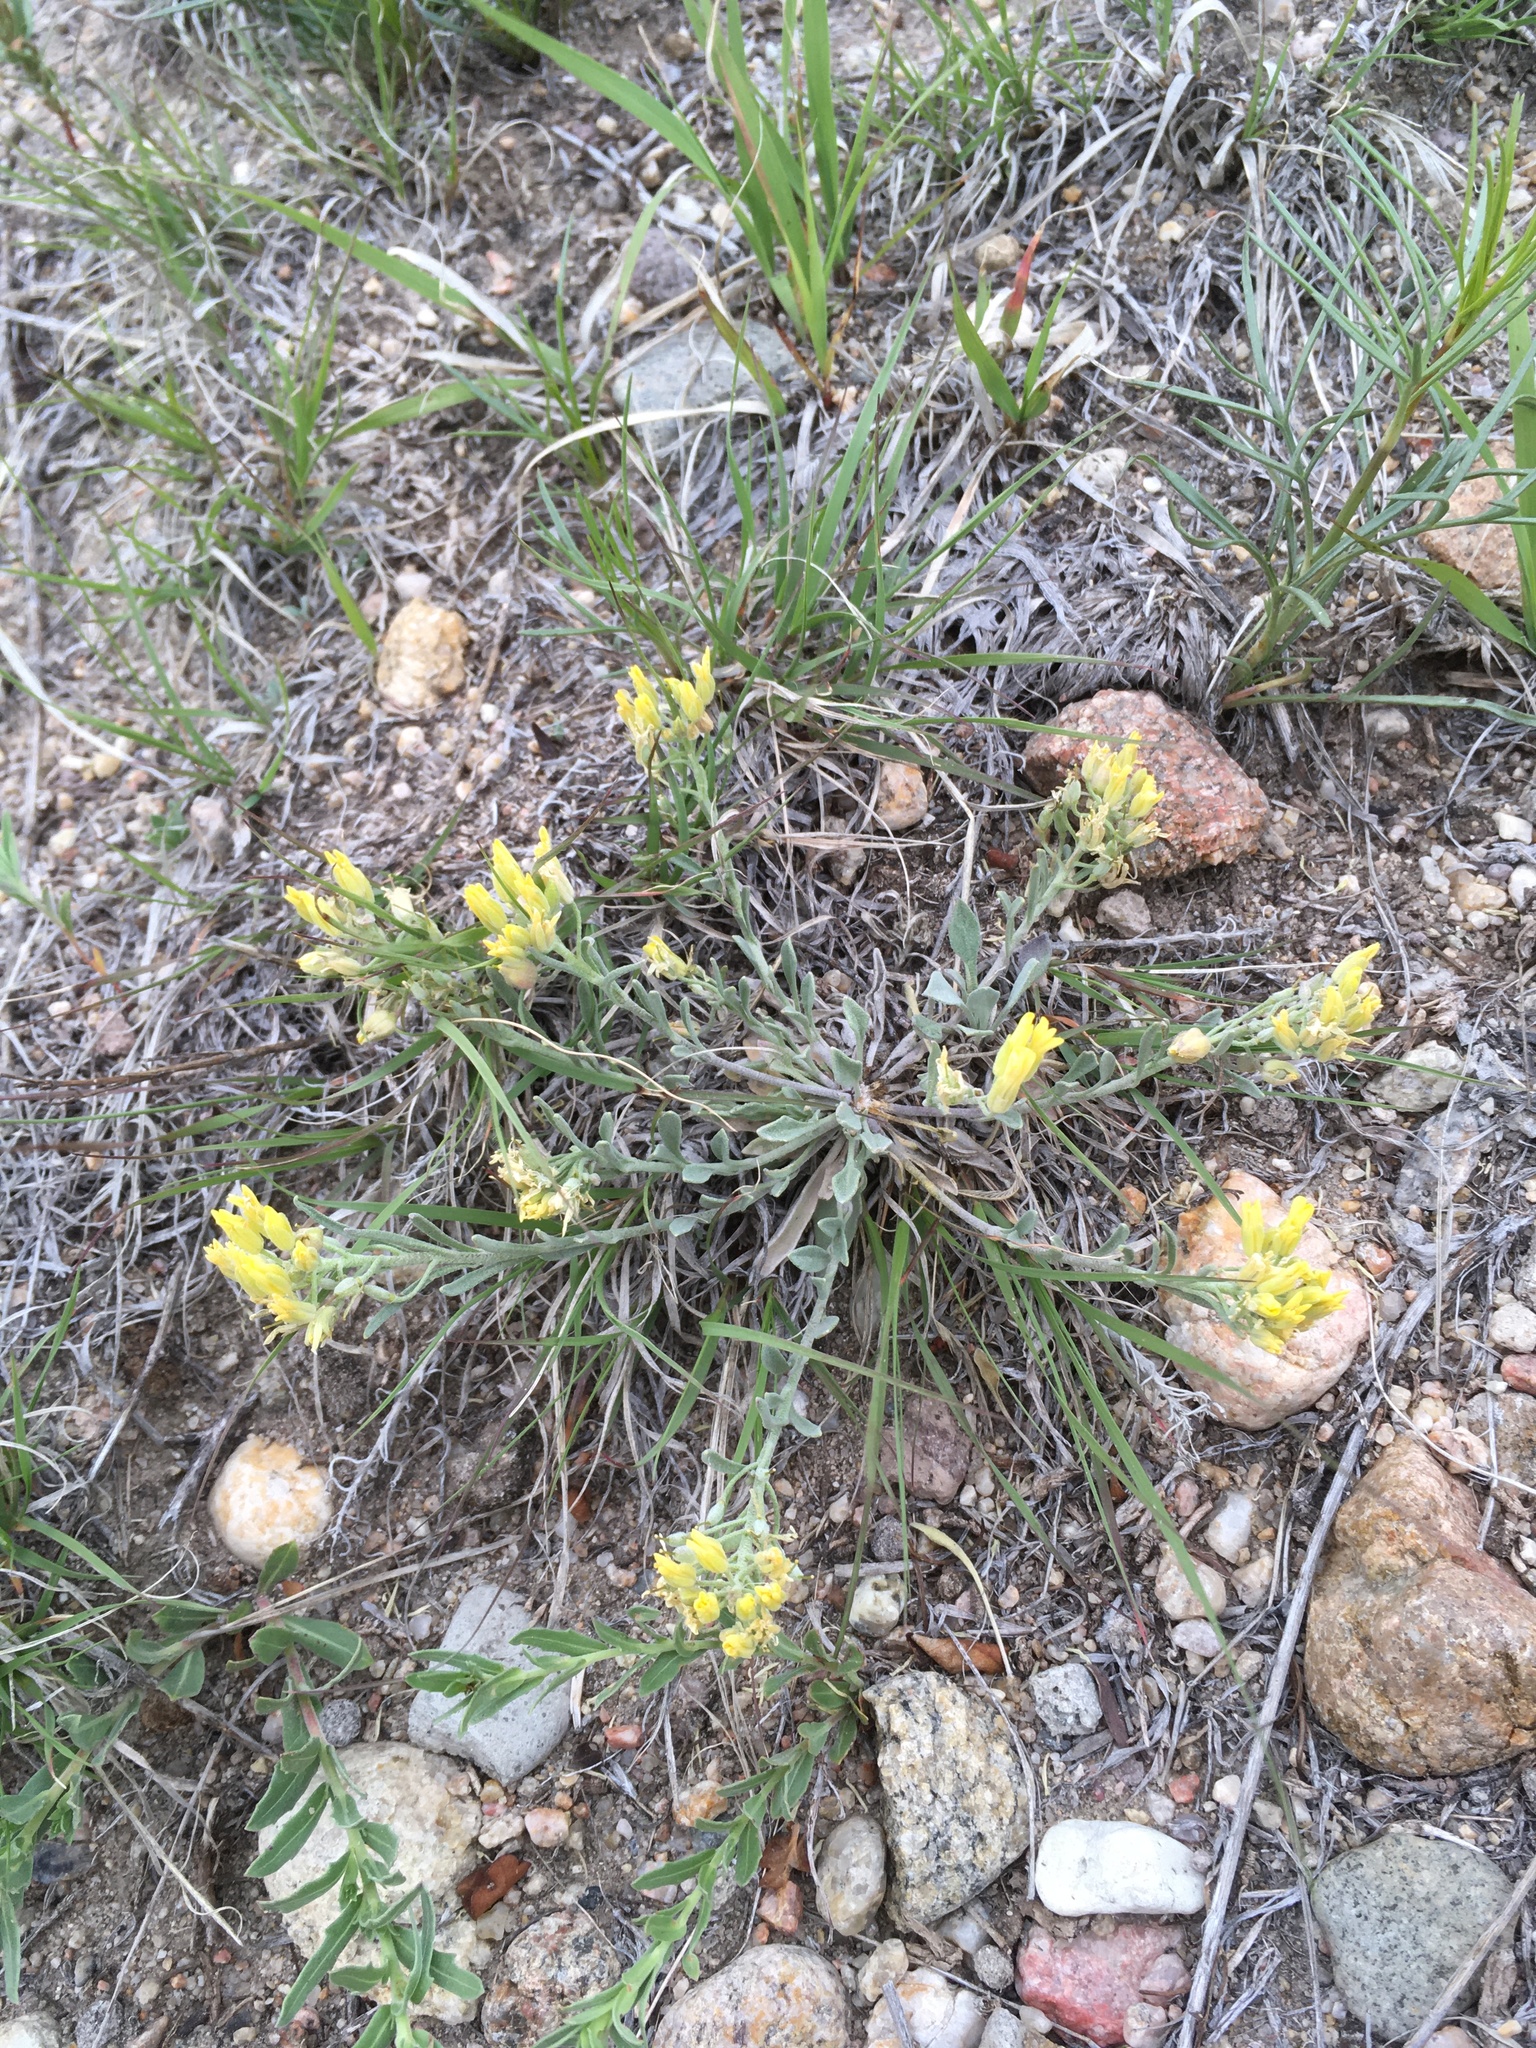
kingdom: Plantae
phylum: Tracheophyta
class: Magnoliopsida
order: Brassicales
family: Brassicaceae
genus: Physaria
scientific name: Physaria montana
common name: Mountain bladderpod
